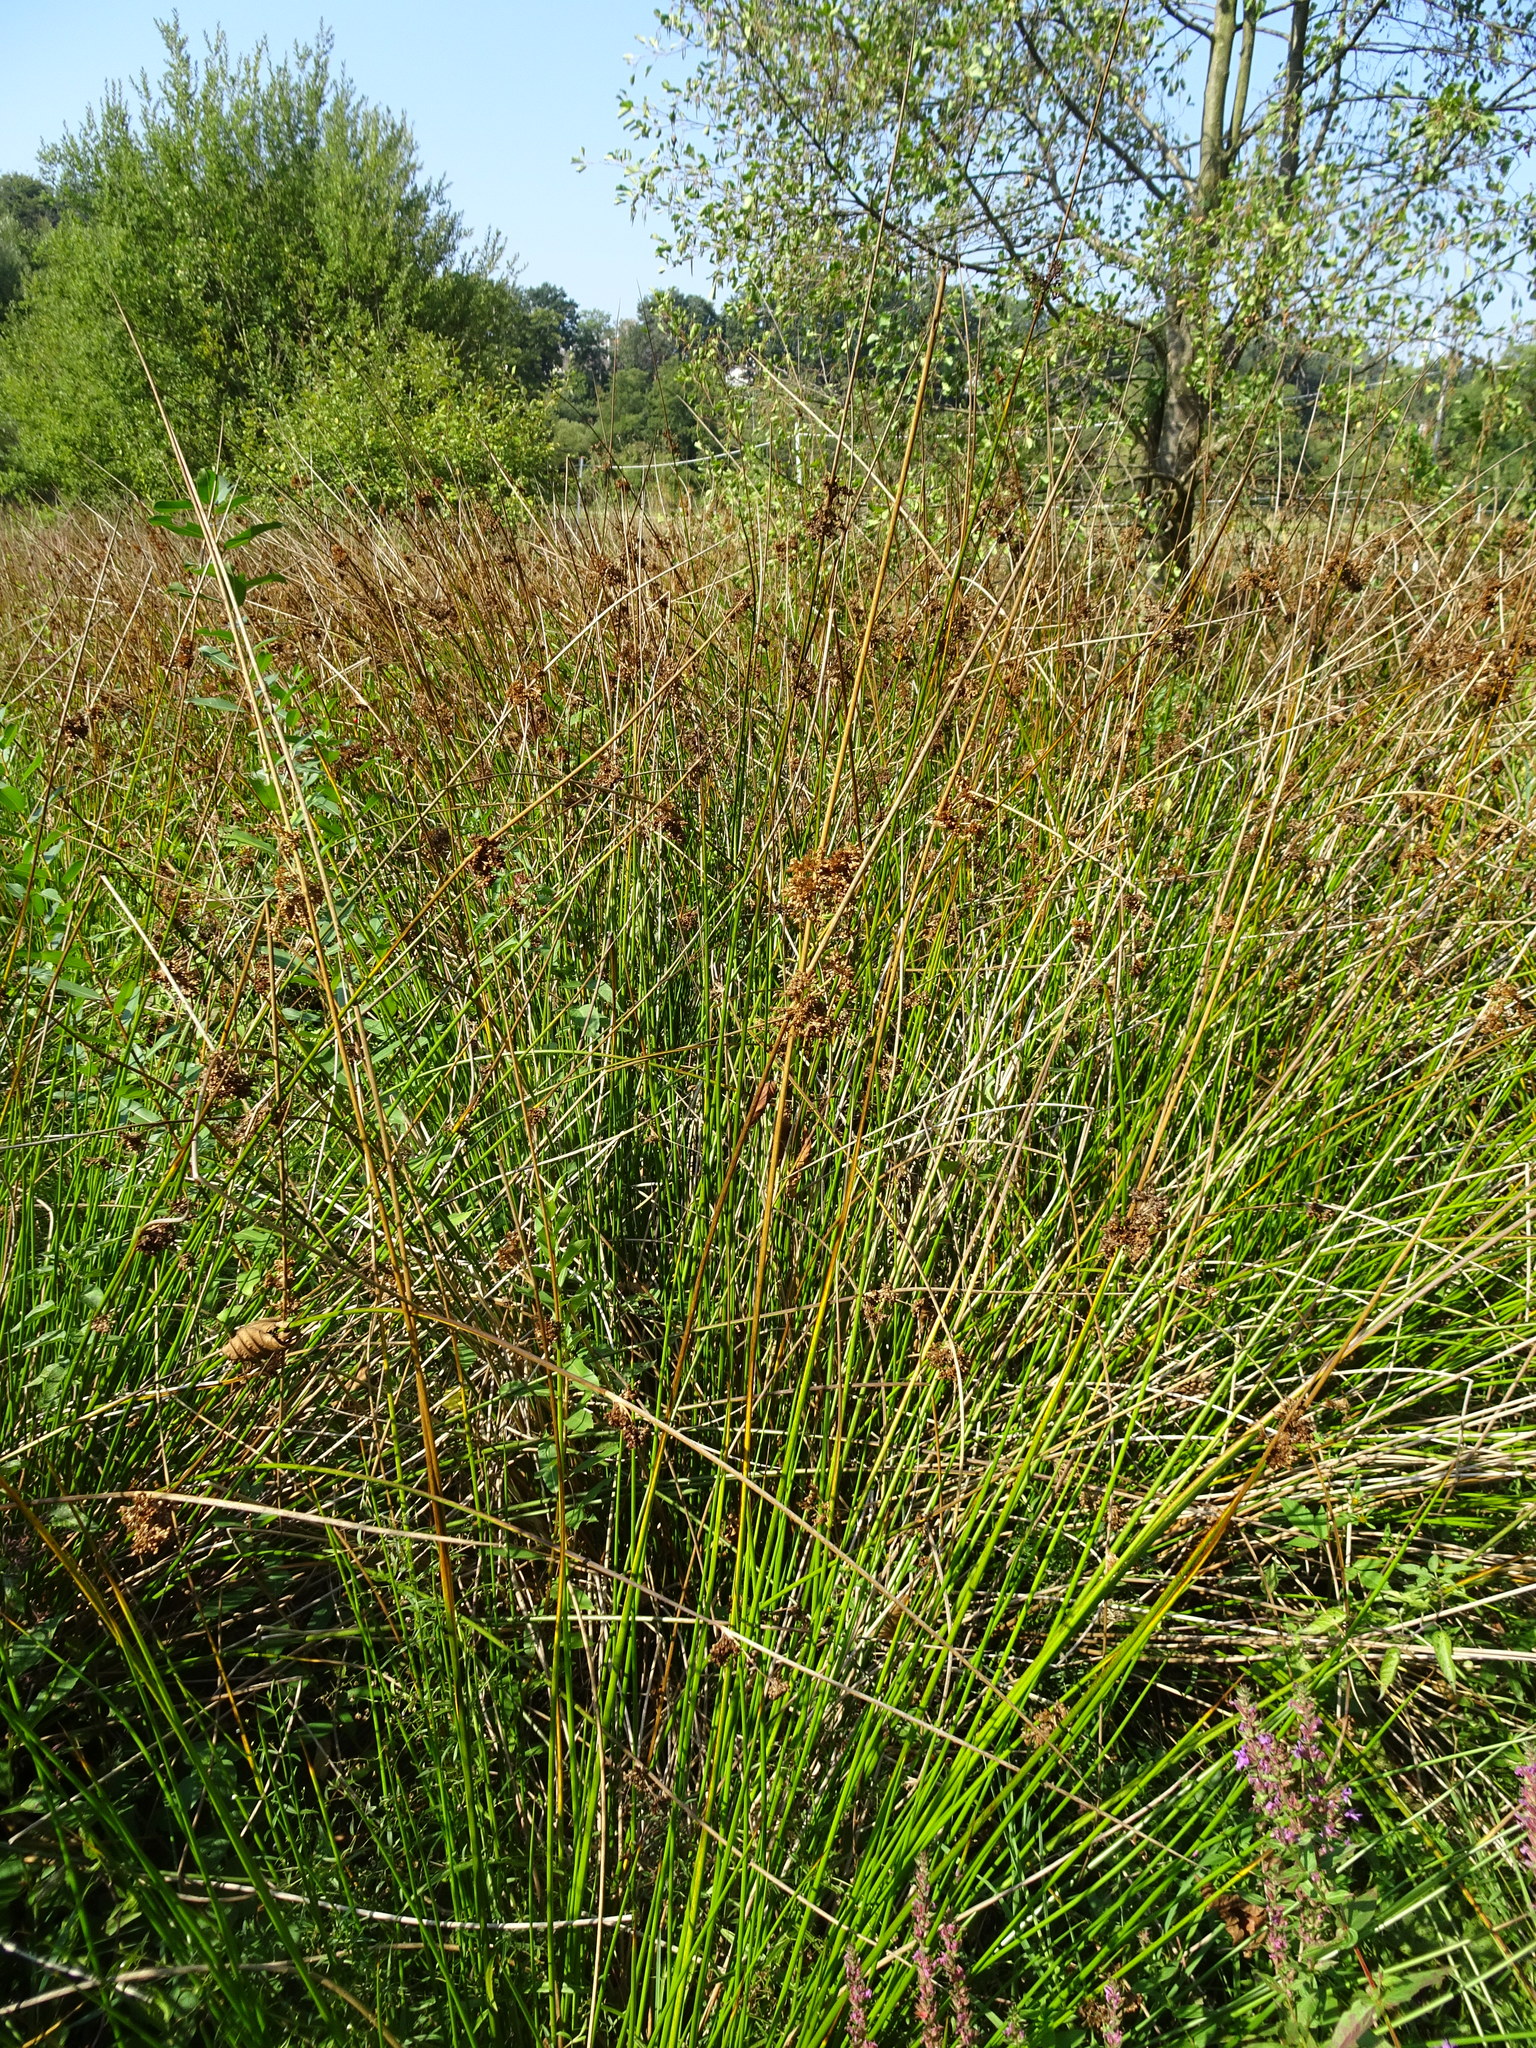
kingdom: Plantae
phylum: Tracheophyta
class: Liliopsida
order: Poales
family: Juncaceae
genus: Juncus
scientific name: Juncus effusus
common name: Soft rush
